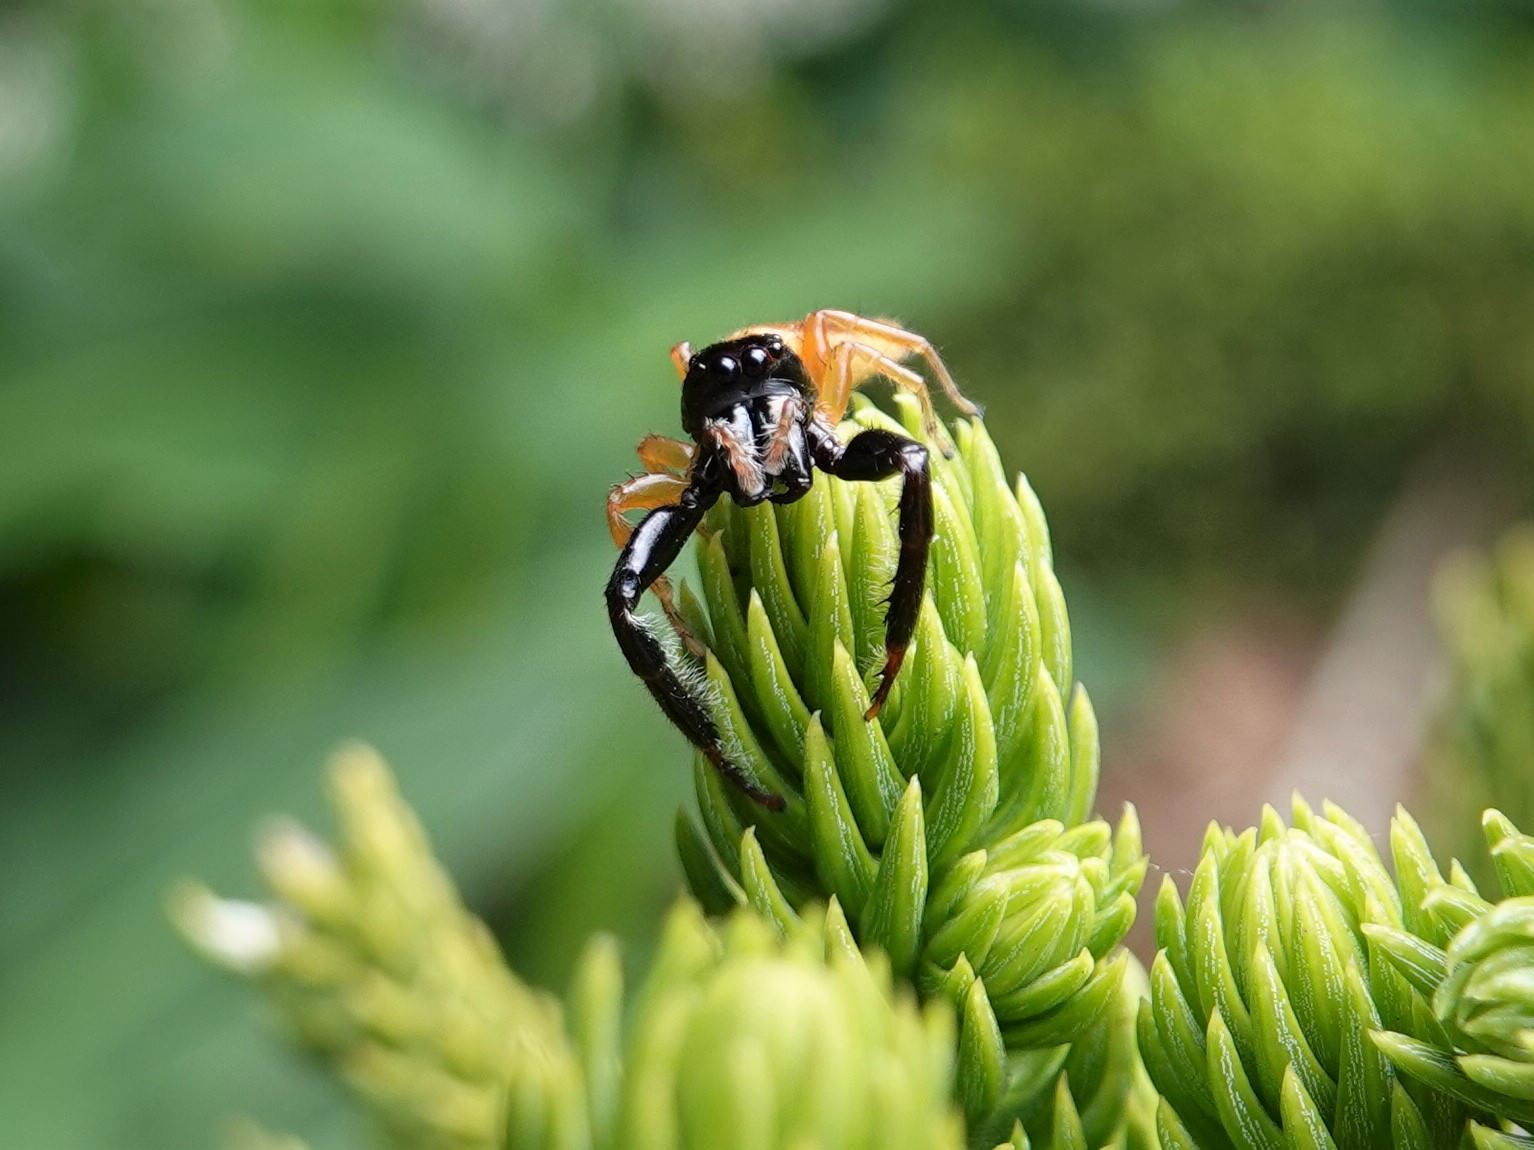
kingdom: Animalia
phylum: Arthropoda
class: Arachnida
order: Araneae
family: Salticidae
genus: Trite
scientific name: Trite planiceps
